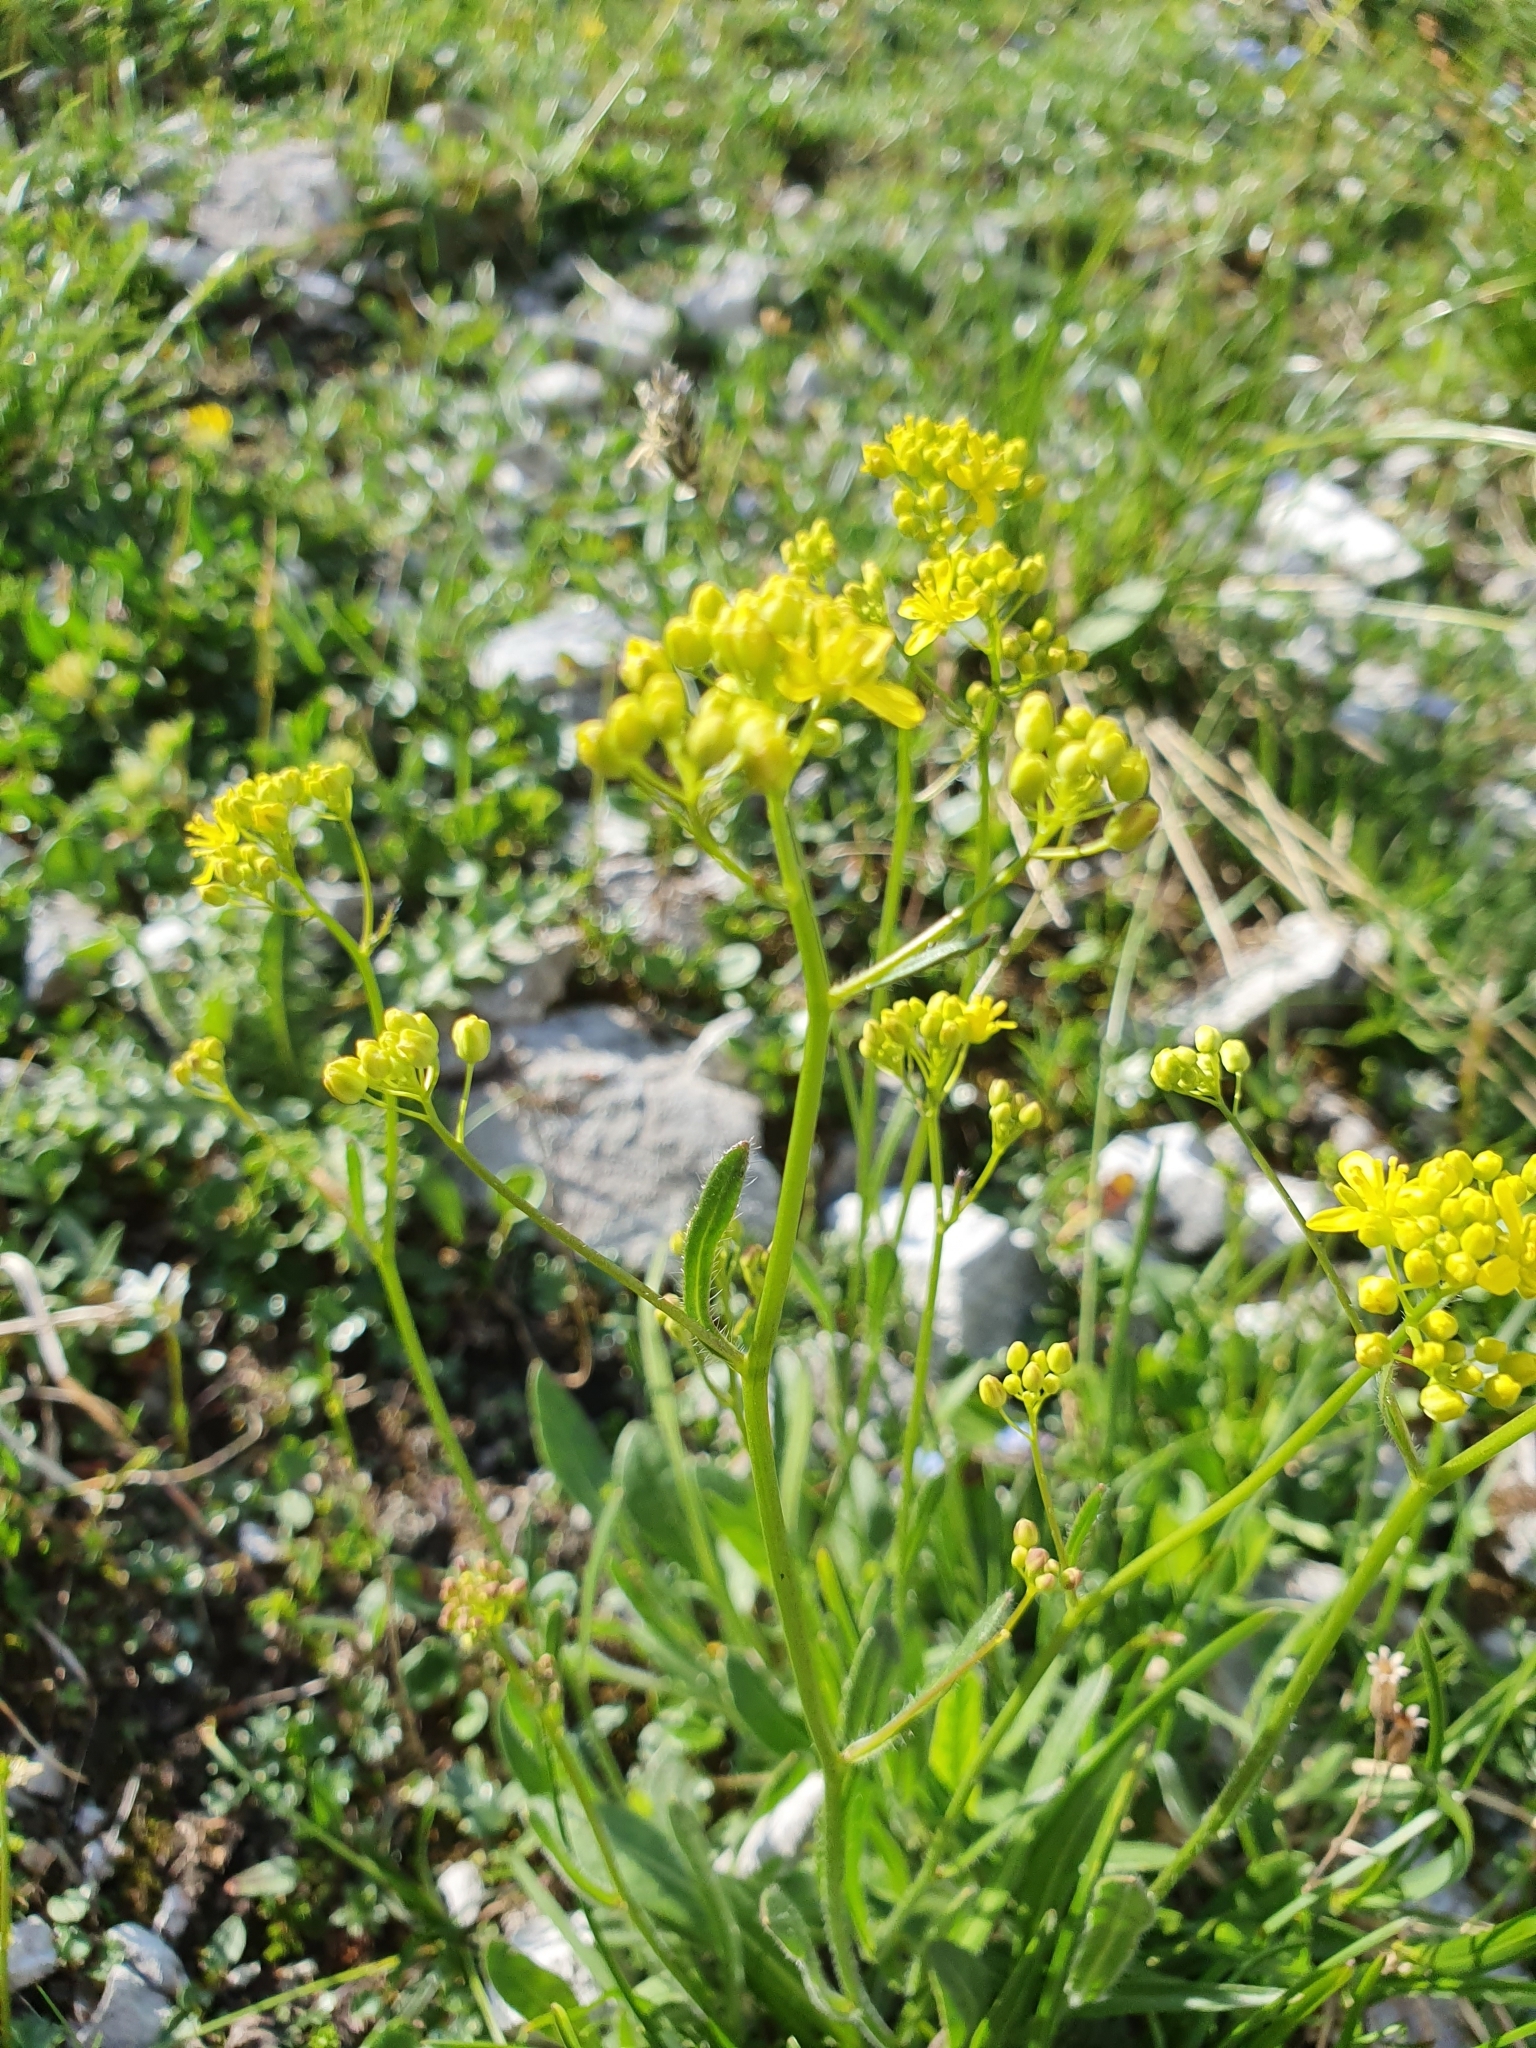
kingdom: Plantae
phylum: Tracheophyta
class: Magnoliopsida
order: Brassicales
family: Brassicaceae
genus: Biscutella
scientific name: Biscutella laevigata
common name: Buckler mustard
